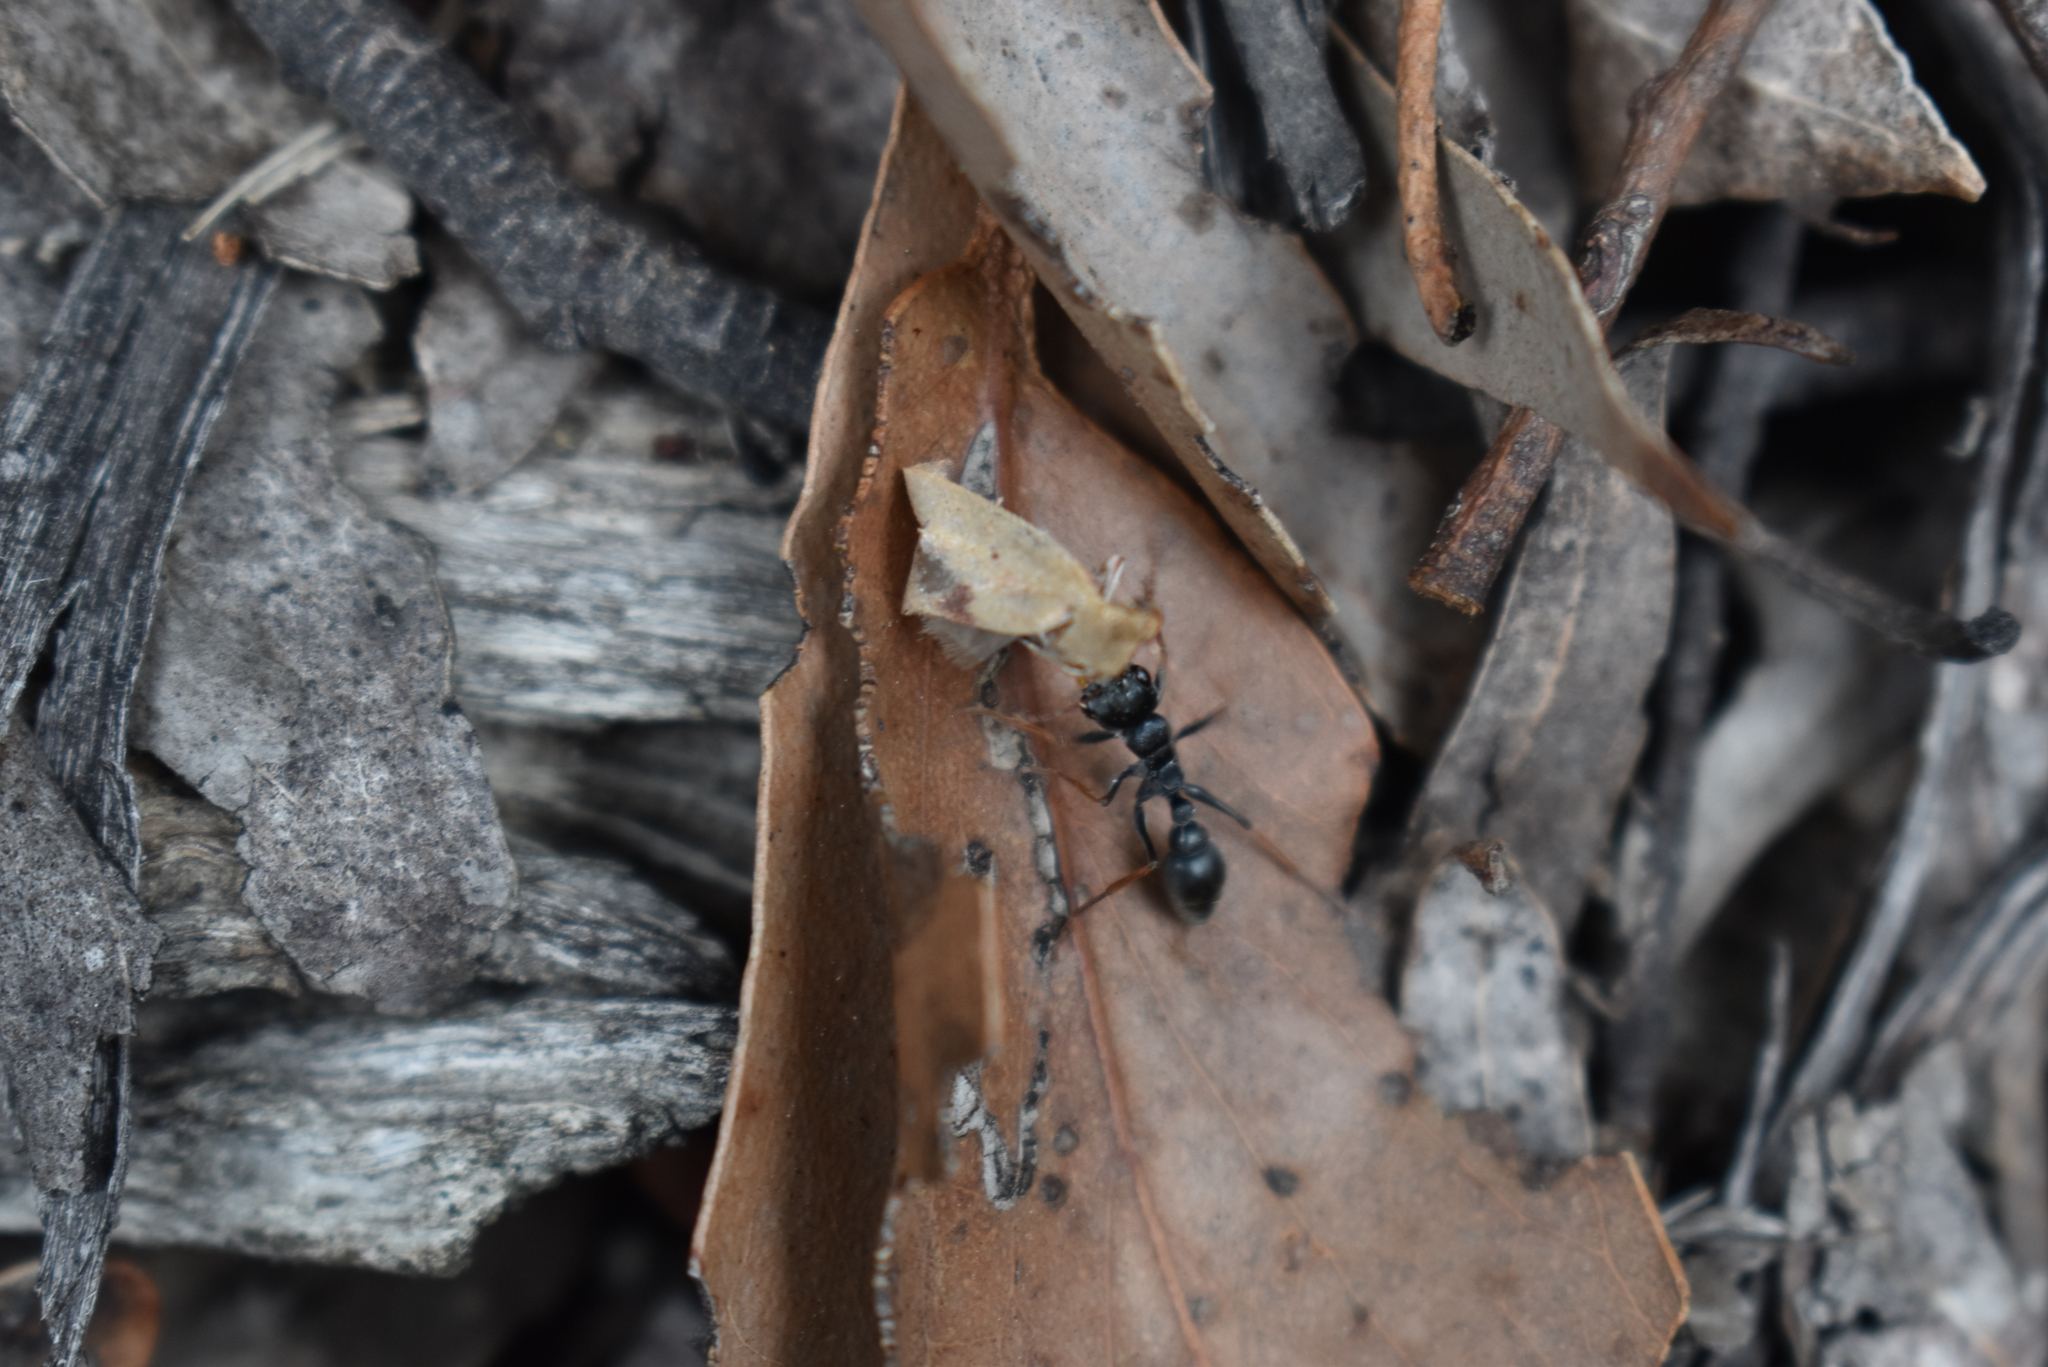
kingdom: Animalia
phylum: Arthropoda
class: Insecta
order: Hymenoptera
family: Formicidae
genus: Myrmecia
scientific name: Myrmecia pilosula
